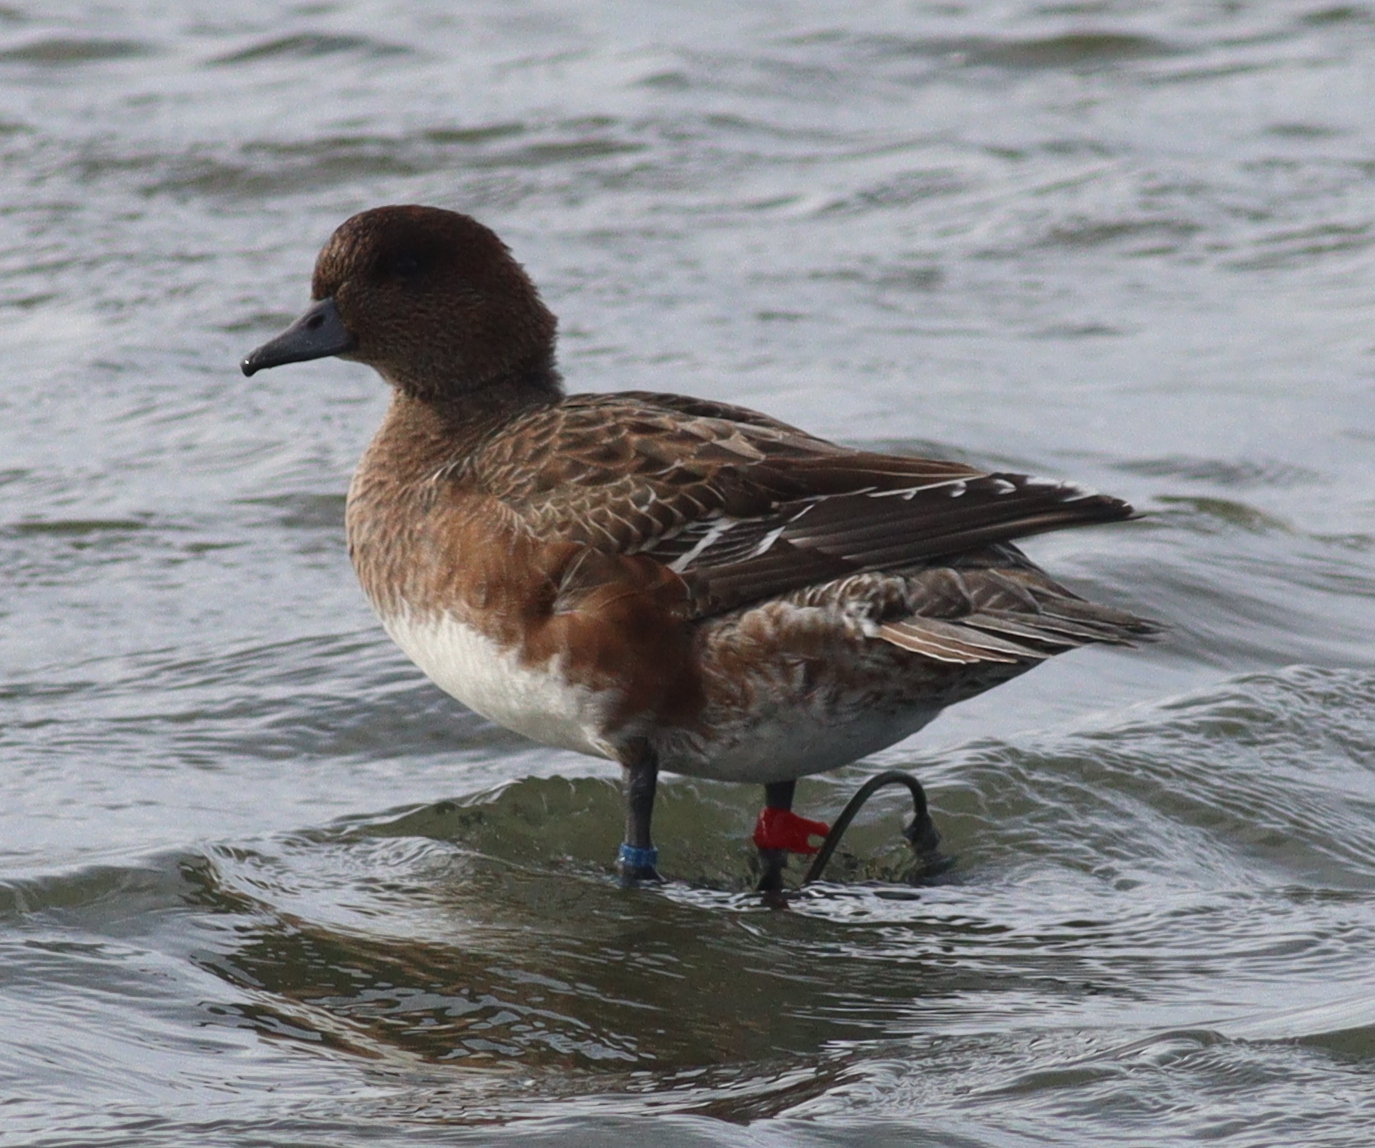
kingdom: Animalia
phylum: Chordata
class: Aves
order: Anseriformes
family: Anatidae
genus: Mareca
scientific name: Mareca penelope
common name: Eurasian wigeon
